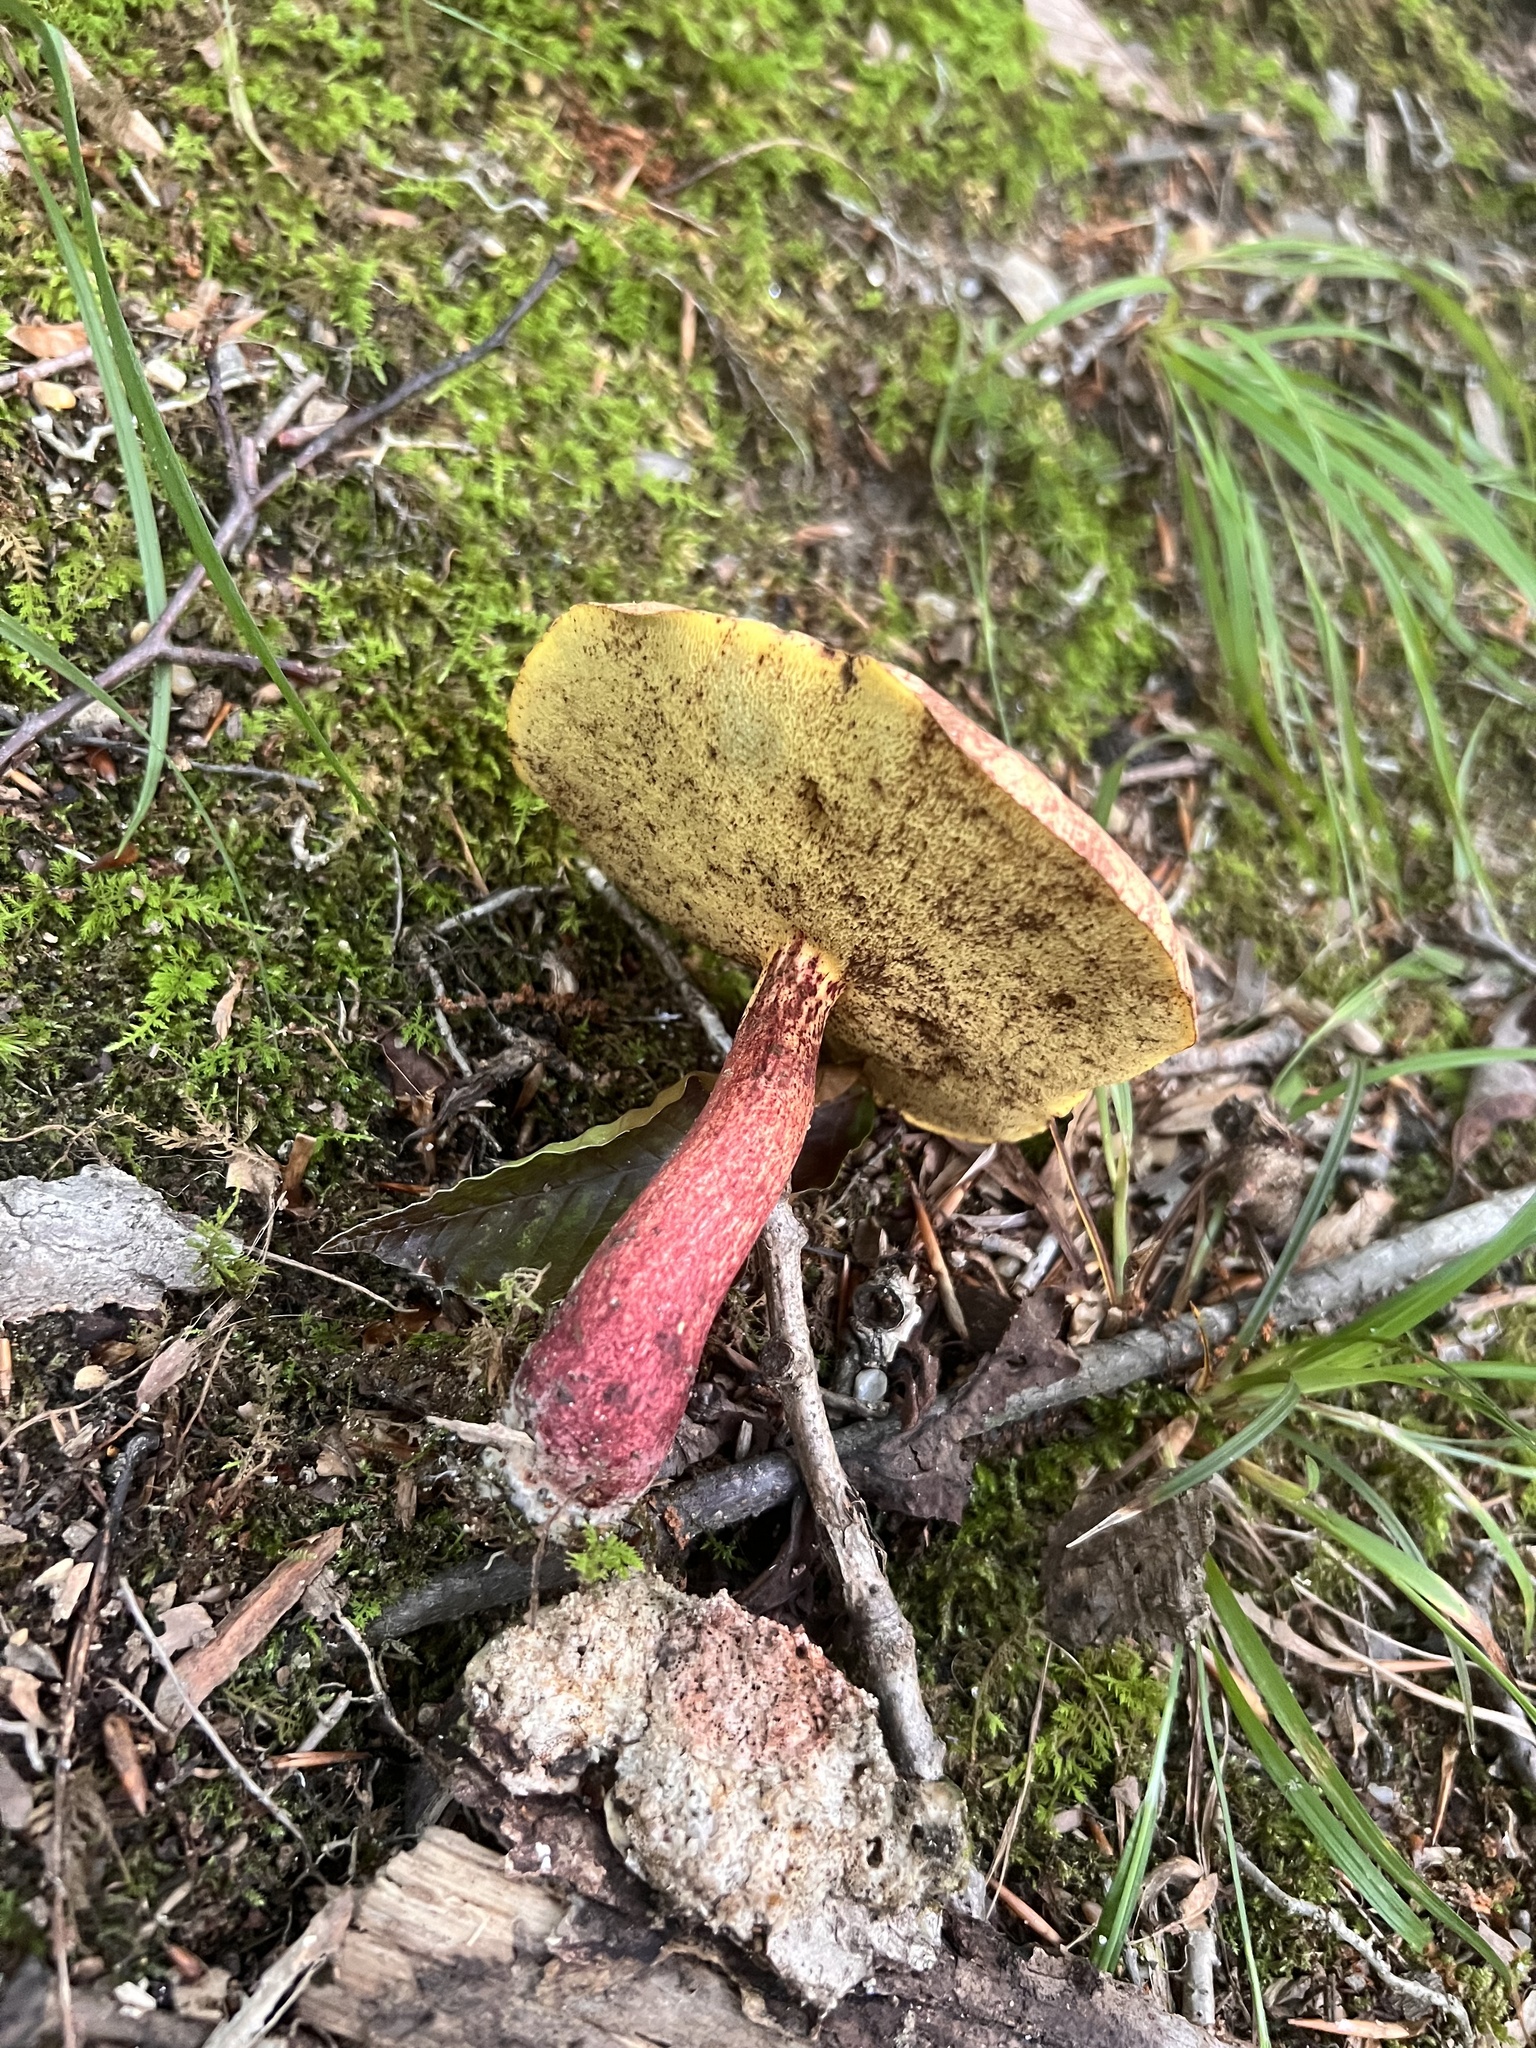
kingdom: Fungi
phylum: Basidiomycota
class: Agaricomycetes
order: Boletales
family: Boletaceae
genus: Baorangia
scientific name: Baorangia bicolor
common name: Two-colored bolete
